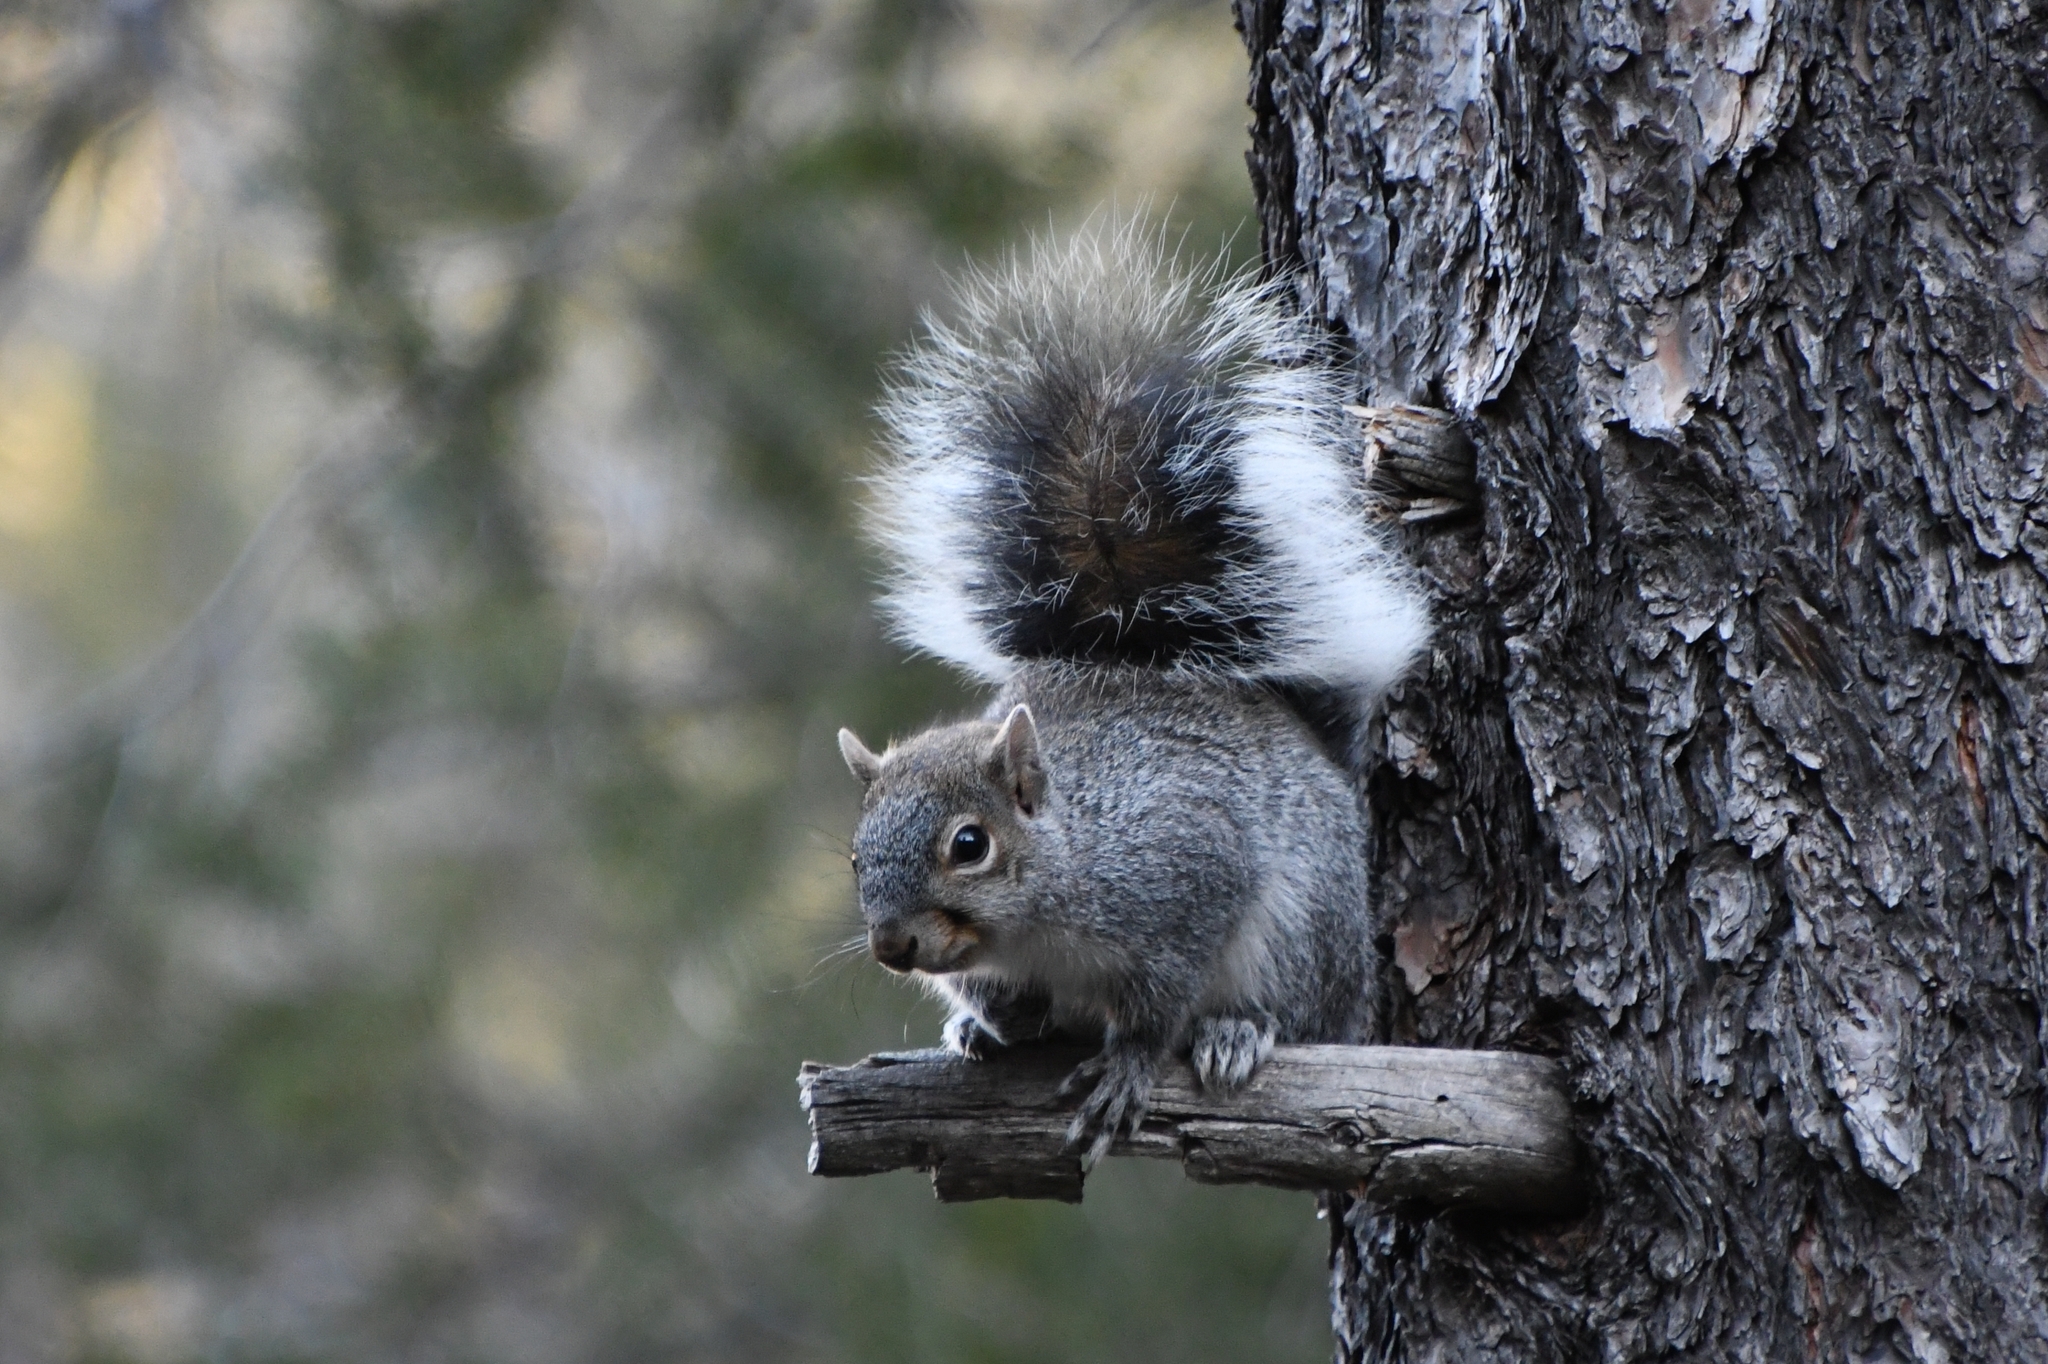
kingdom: Animalia
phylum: Chordata
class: Mammalia
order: Rodentia
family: Sciuridae
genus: Sciurus
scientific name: Sciurus arizonensis
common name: Arizona gray squirrel
